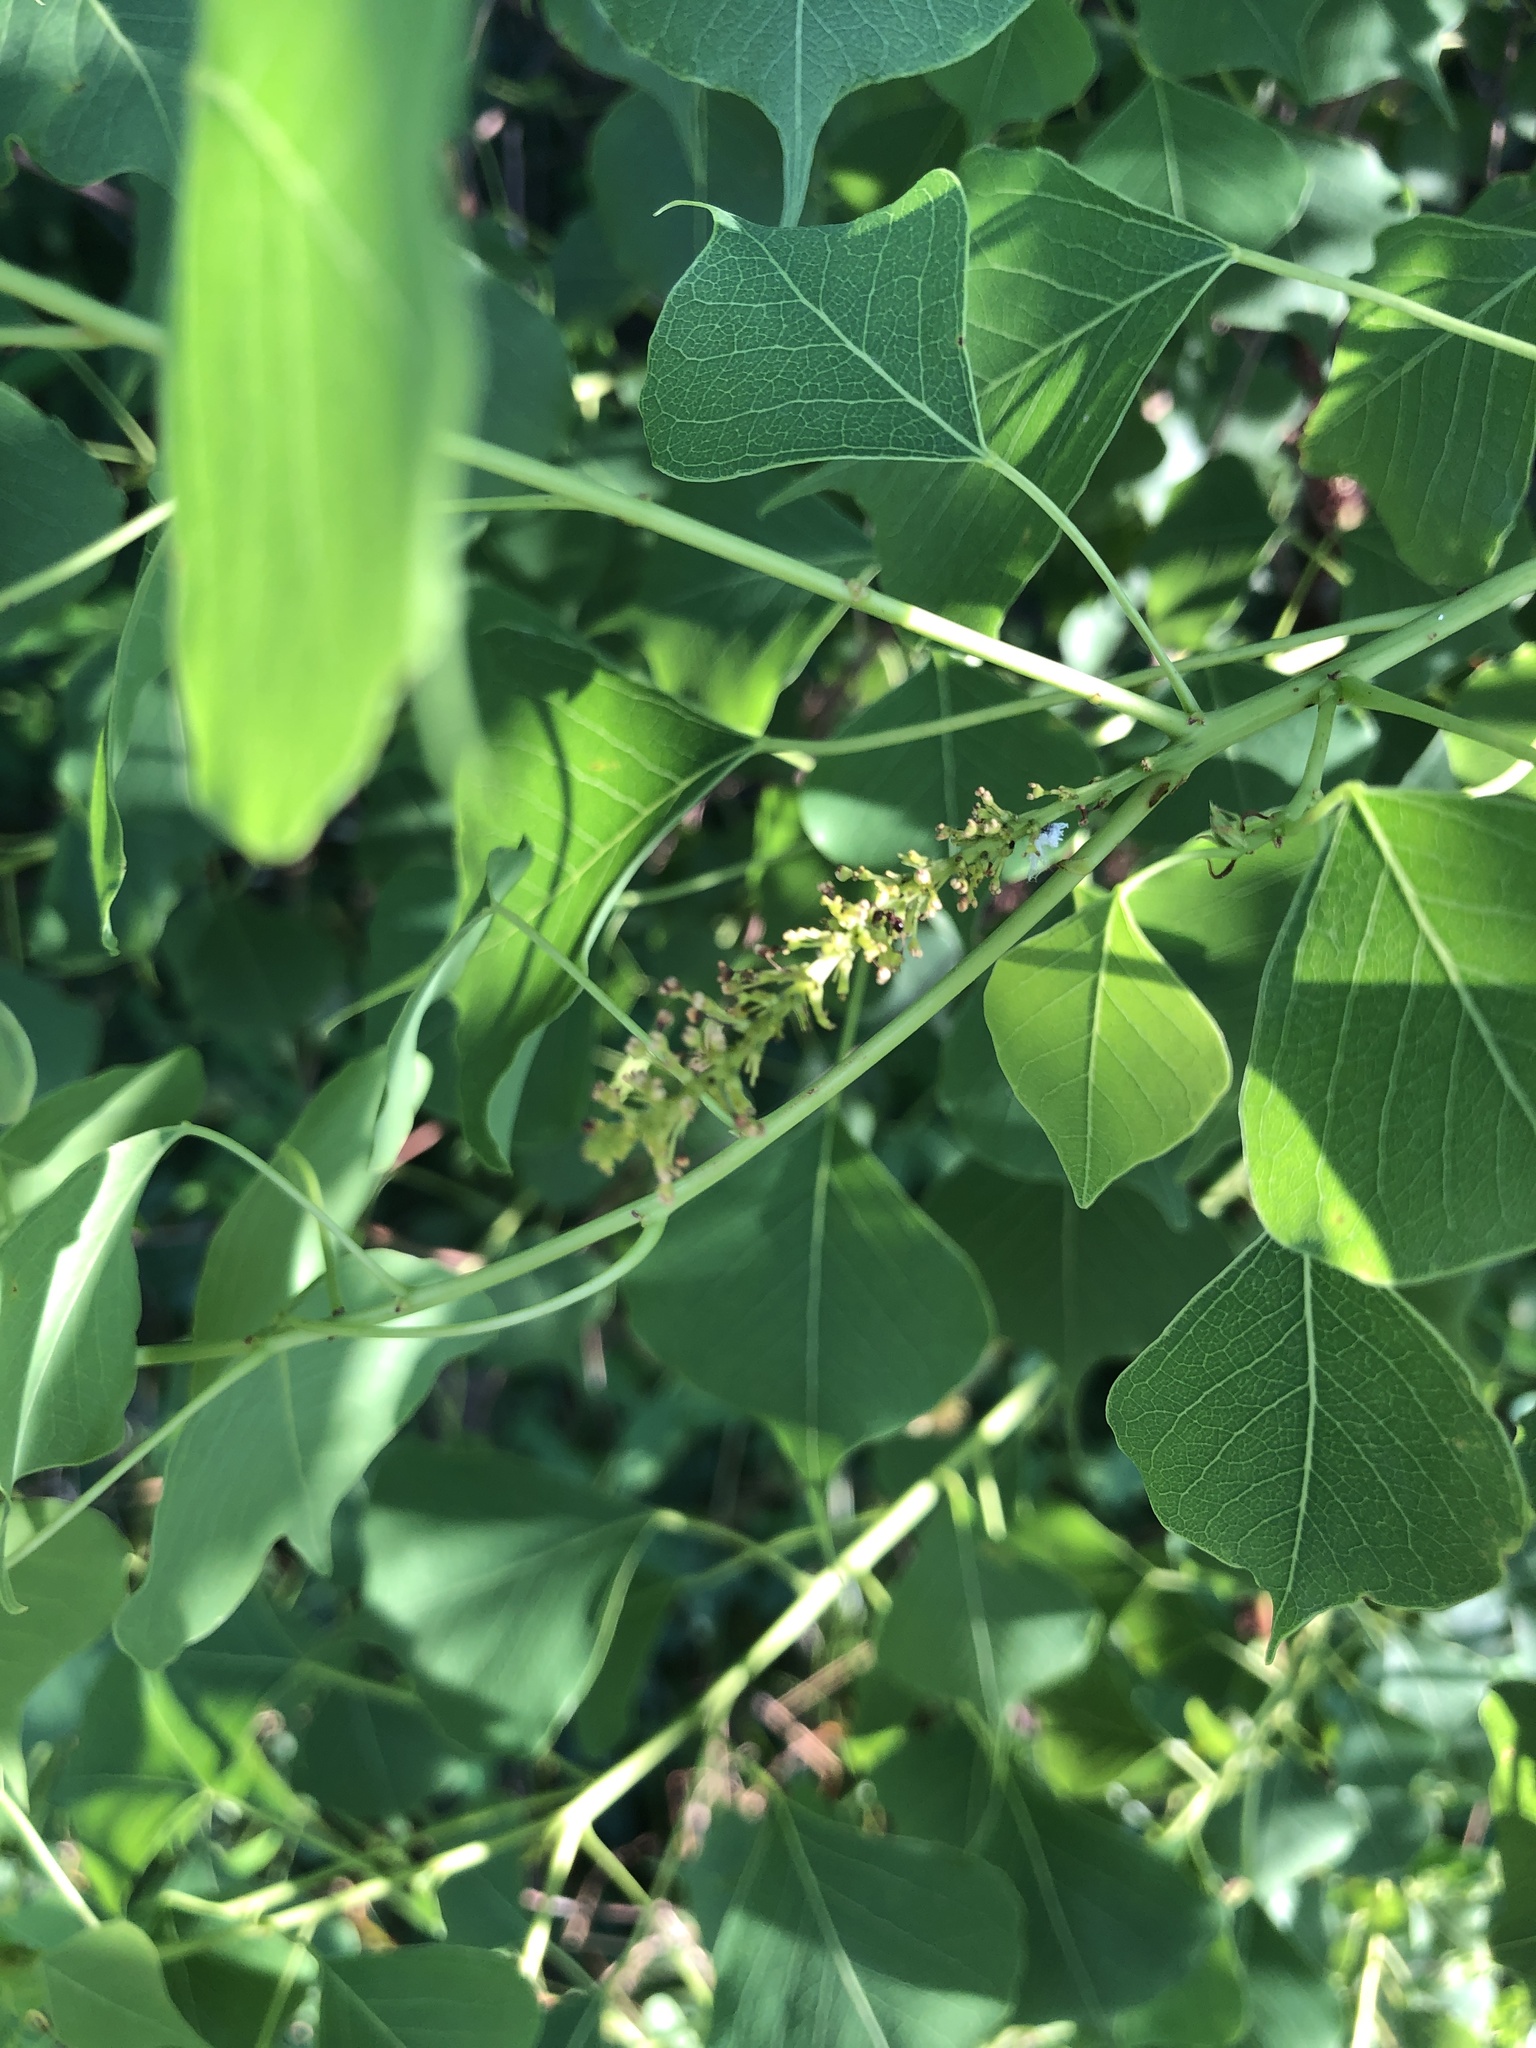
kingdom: Plantae
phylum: Tracheophyta
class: Magnoliopsida
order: Malpighiales
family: Euphorbiaceae
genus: Triadica
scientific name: Triadica sebifera
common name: Chinese tallow
